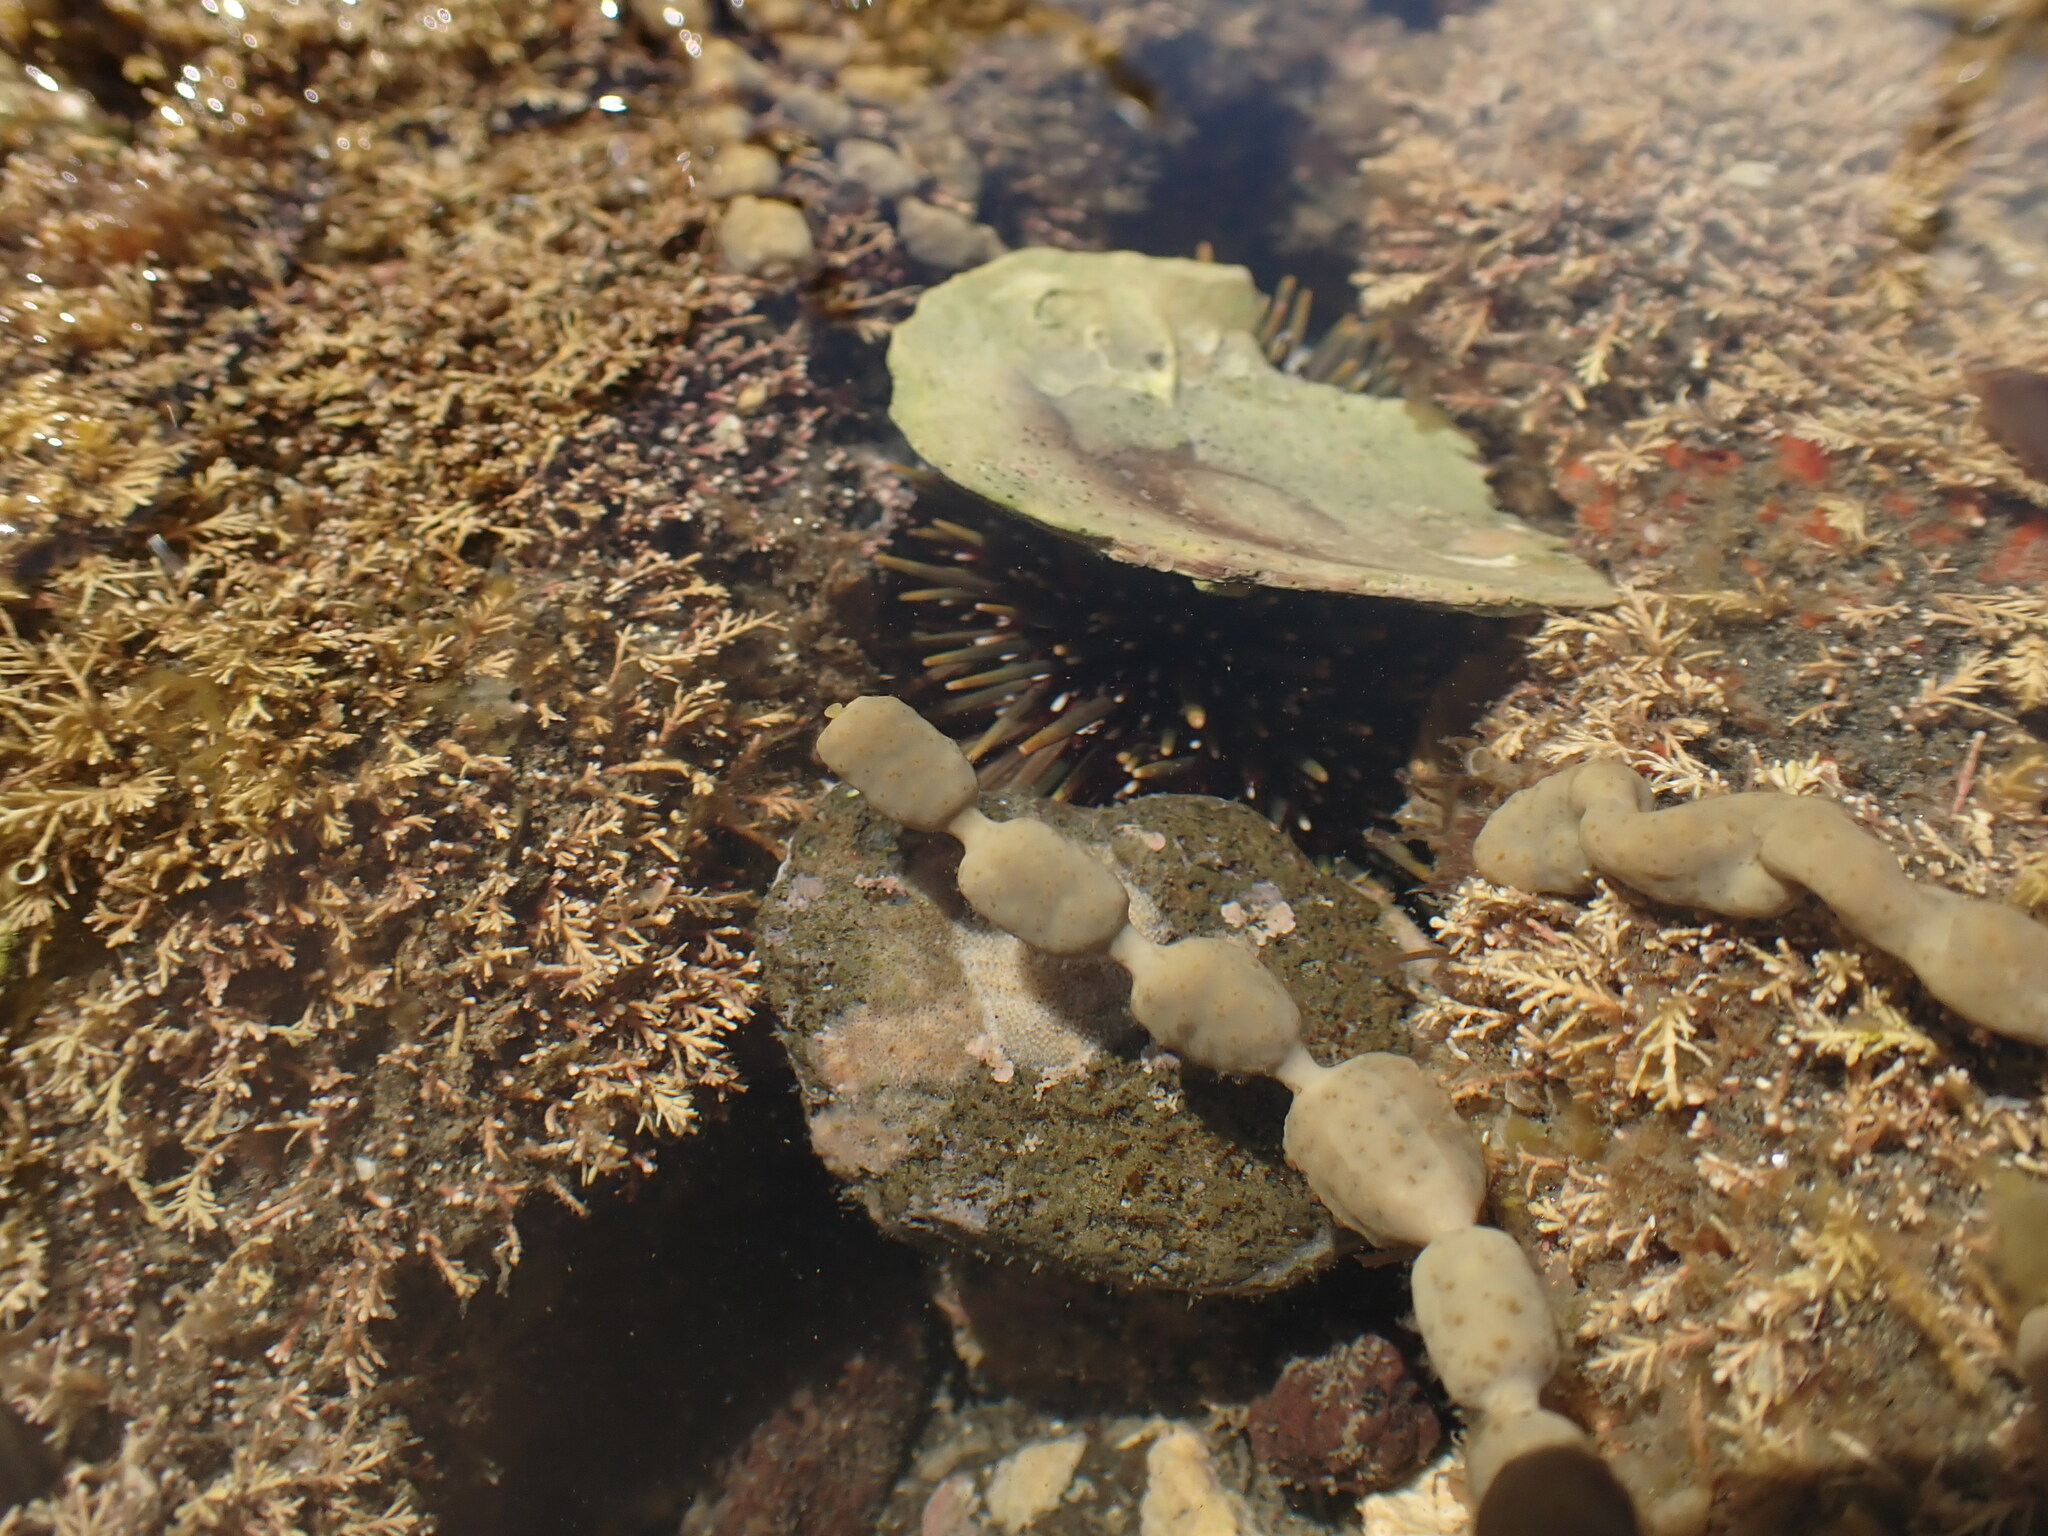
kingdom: Animalia
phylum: Echinodermata
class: Echinoidea
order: Camarodonta
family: Echinometridae
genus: Evechinus
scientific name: Evechinus chloroticus
